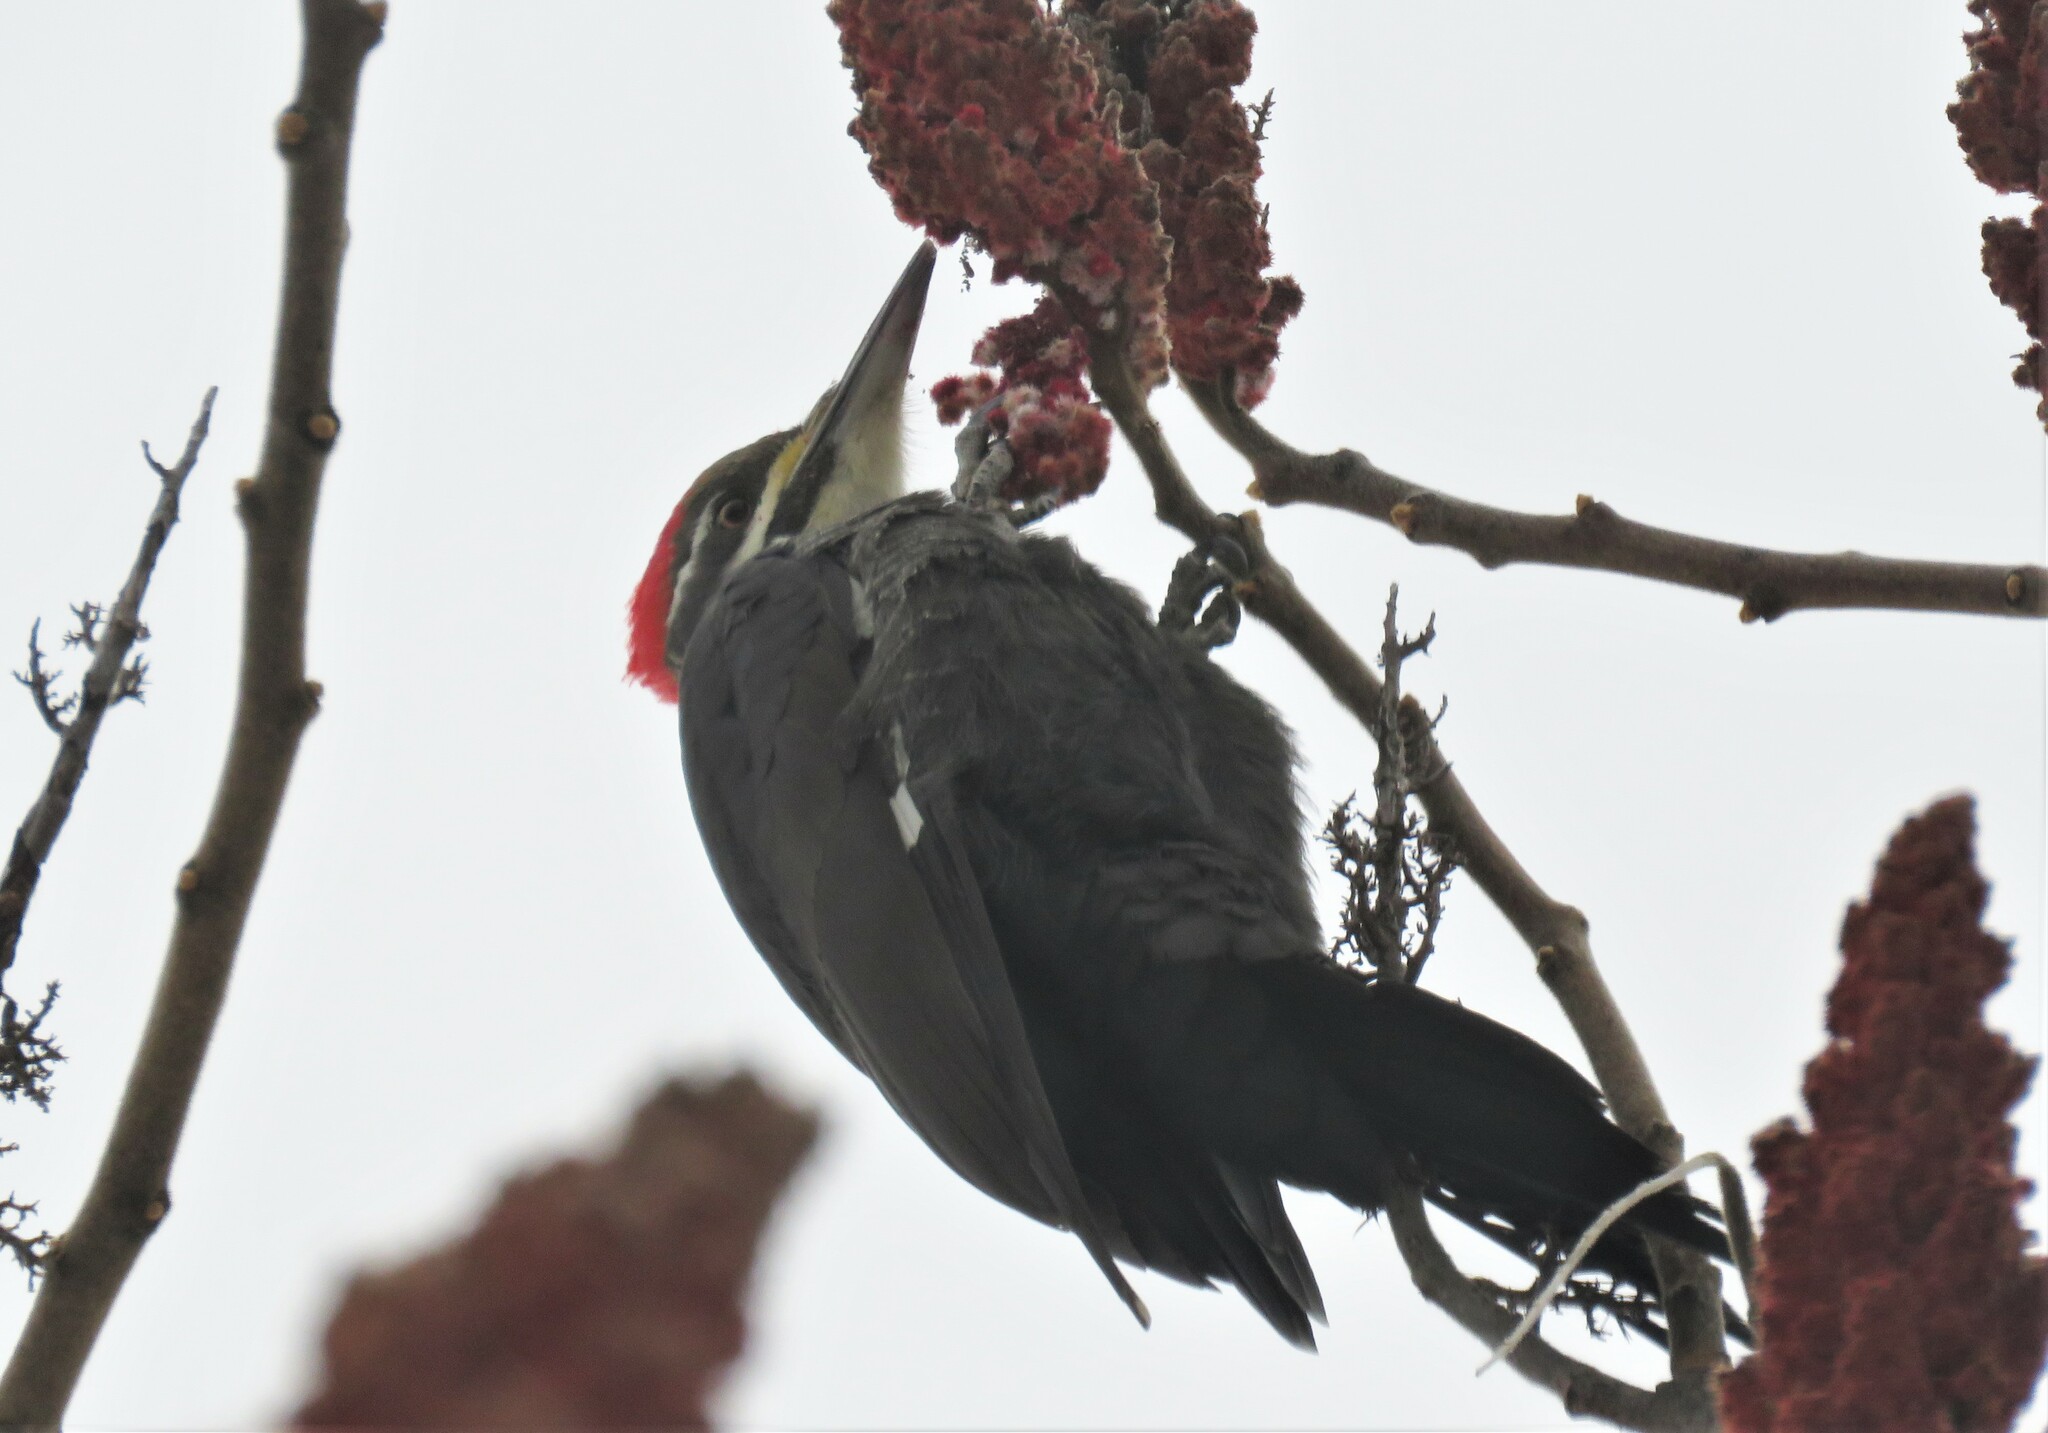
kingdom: Animalia
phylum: Chordata
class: Aves
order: Piciformes
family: Picidae
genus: Dryocopus
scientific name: Dryocopus pileatus
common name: Pileated woodpecker
